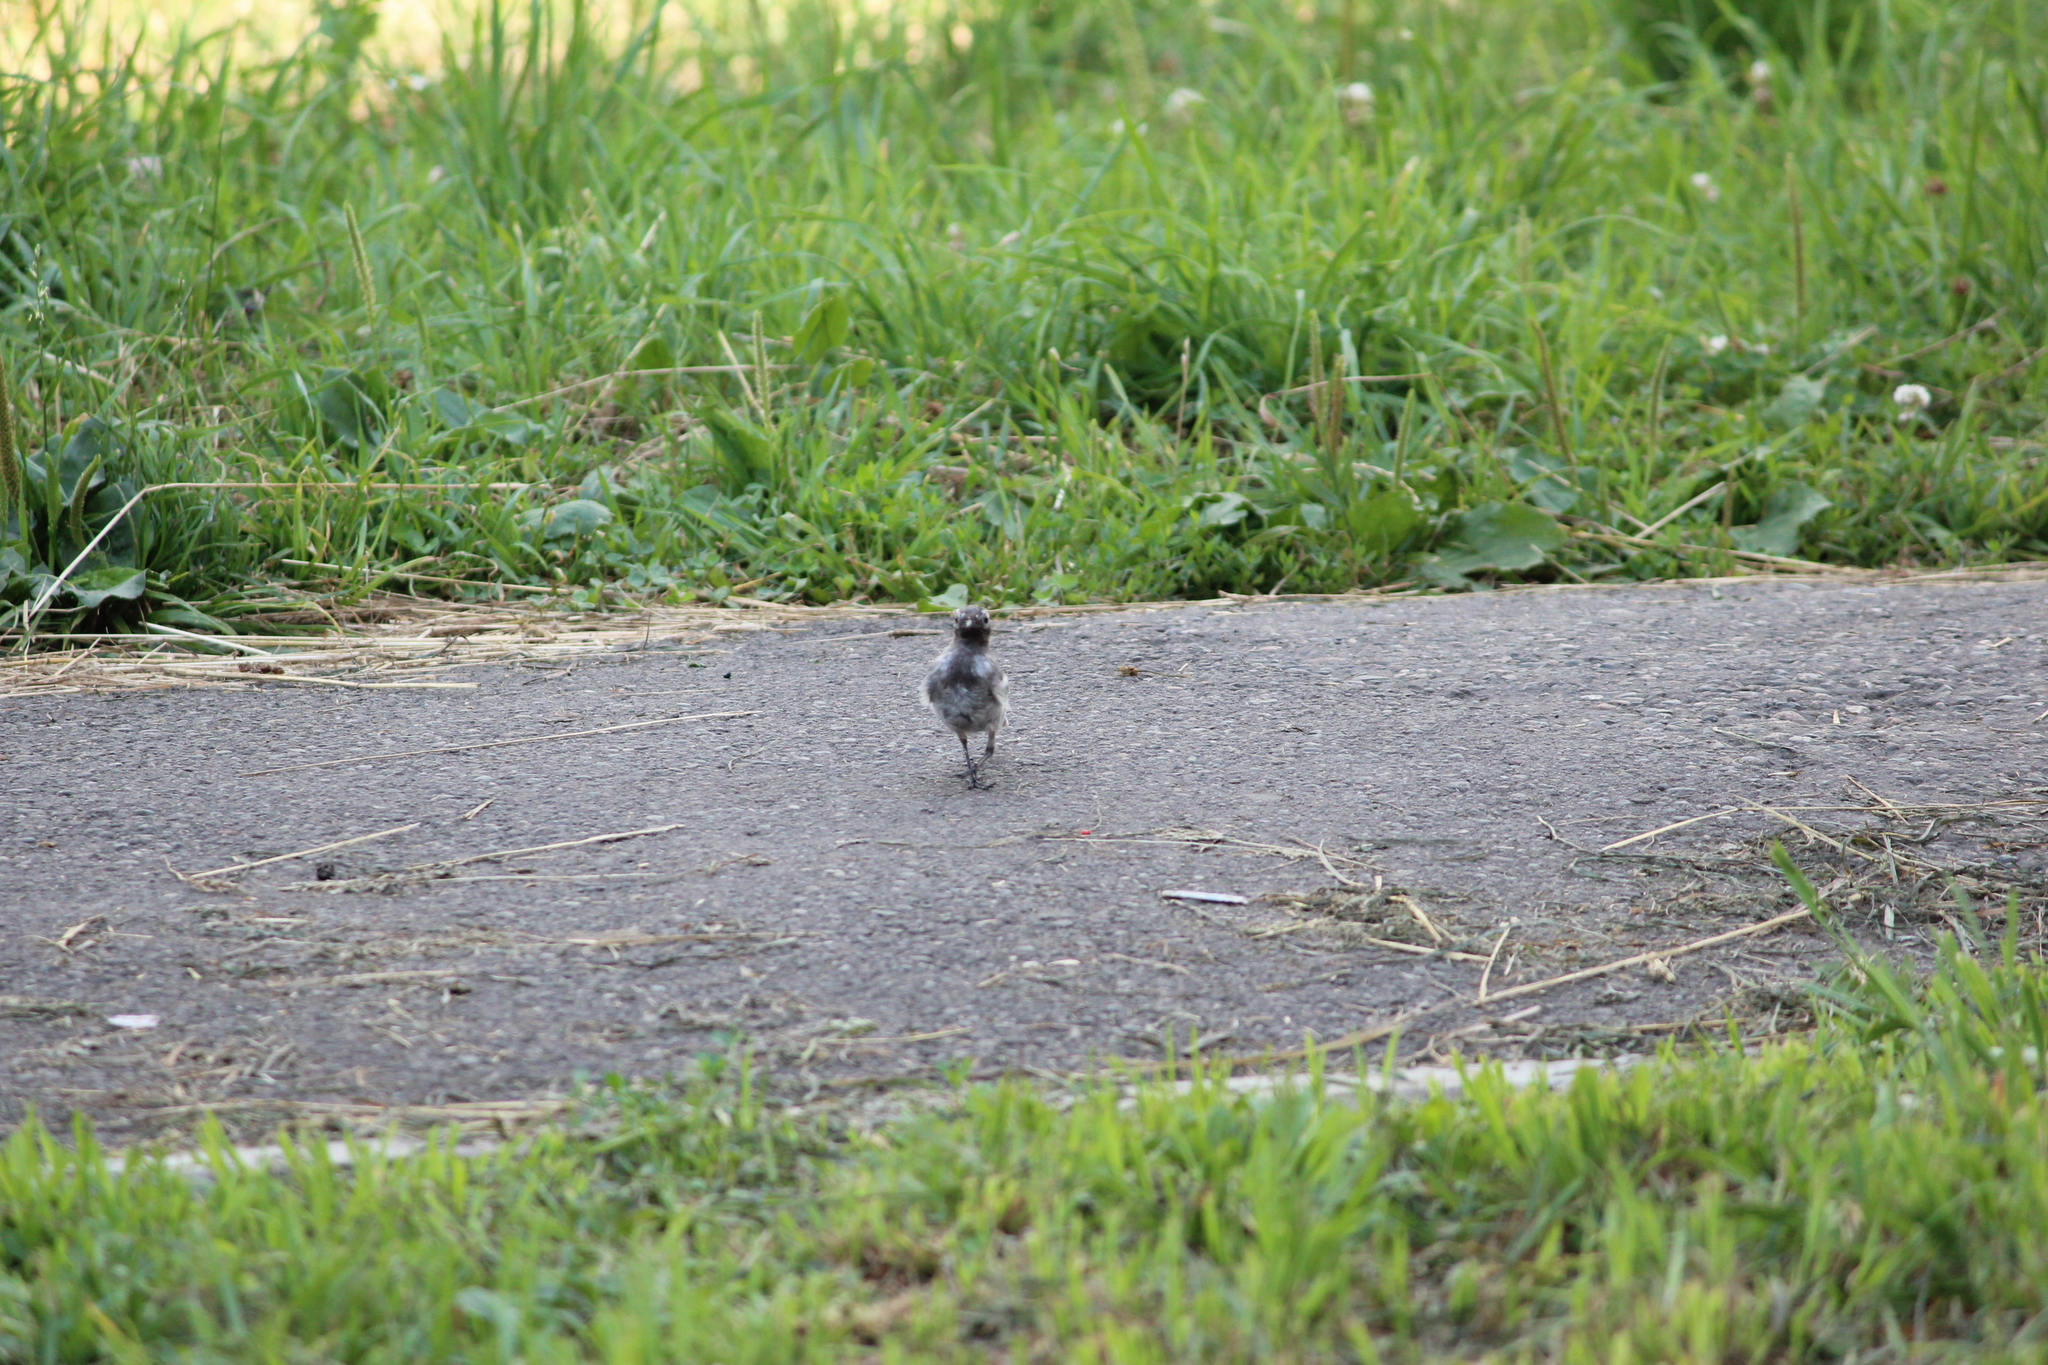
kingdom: Animalia
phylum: Chordata
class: Aves
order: Passeriformes
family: Motacillidae
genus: Motacilla
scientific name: Motacilla alba
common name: White wagtail
